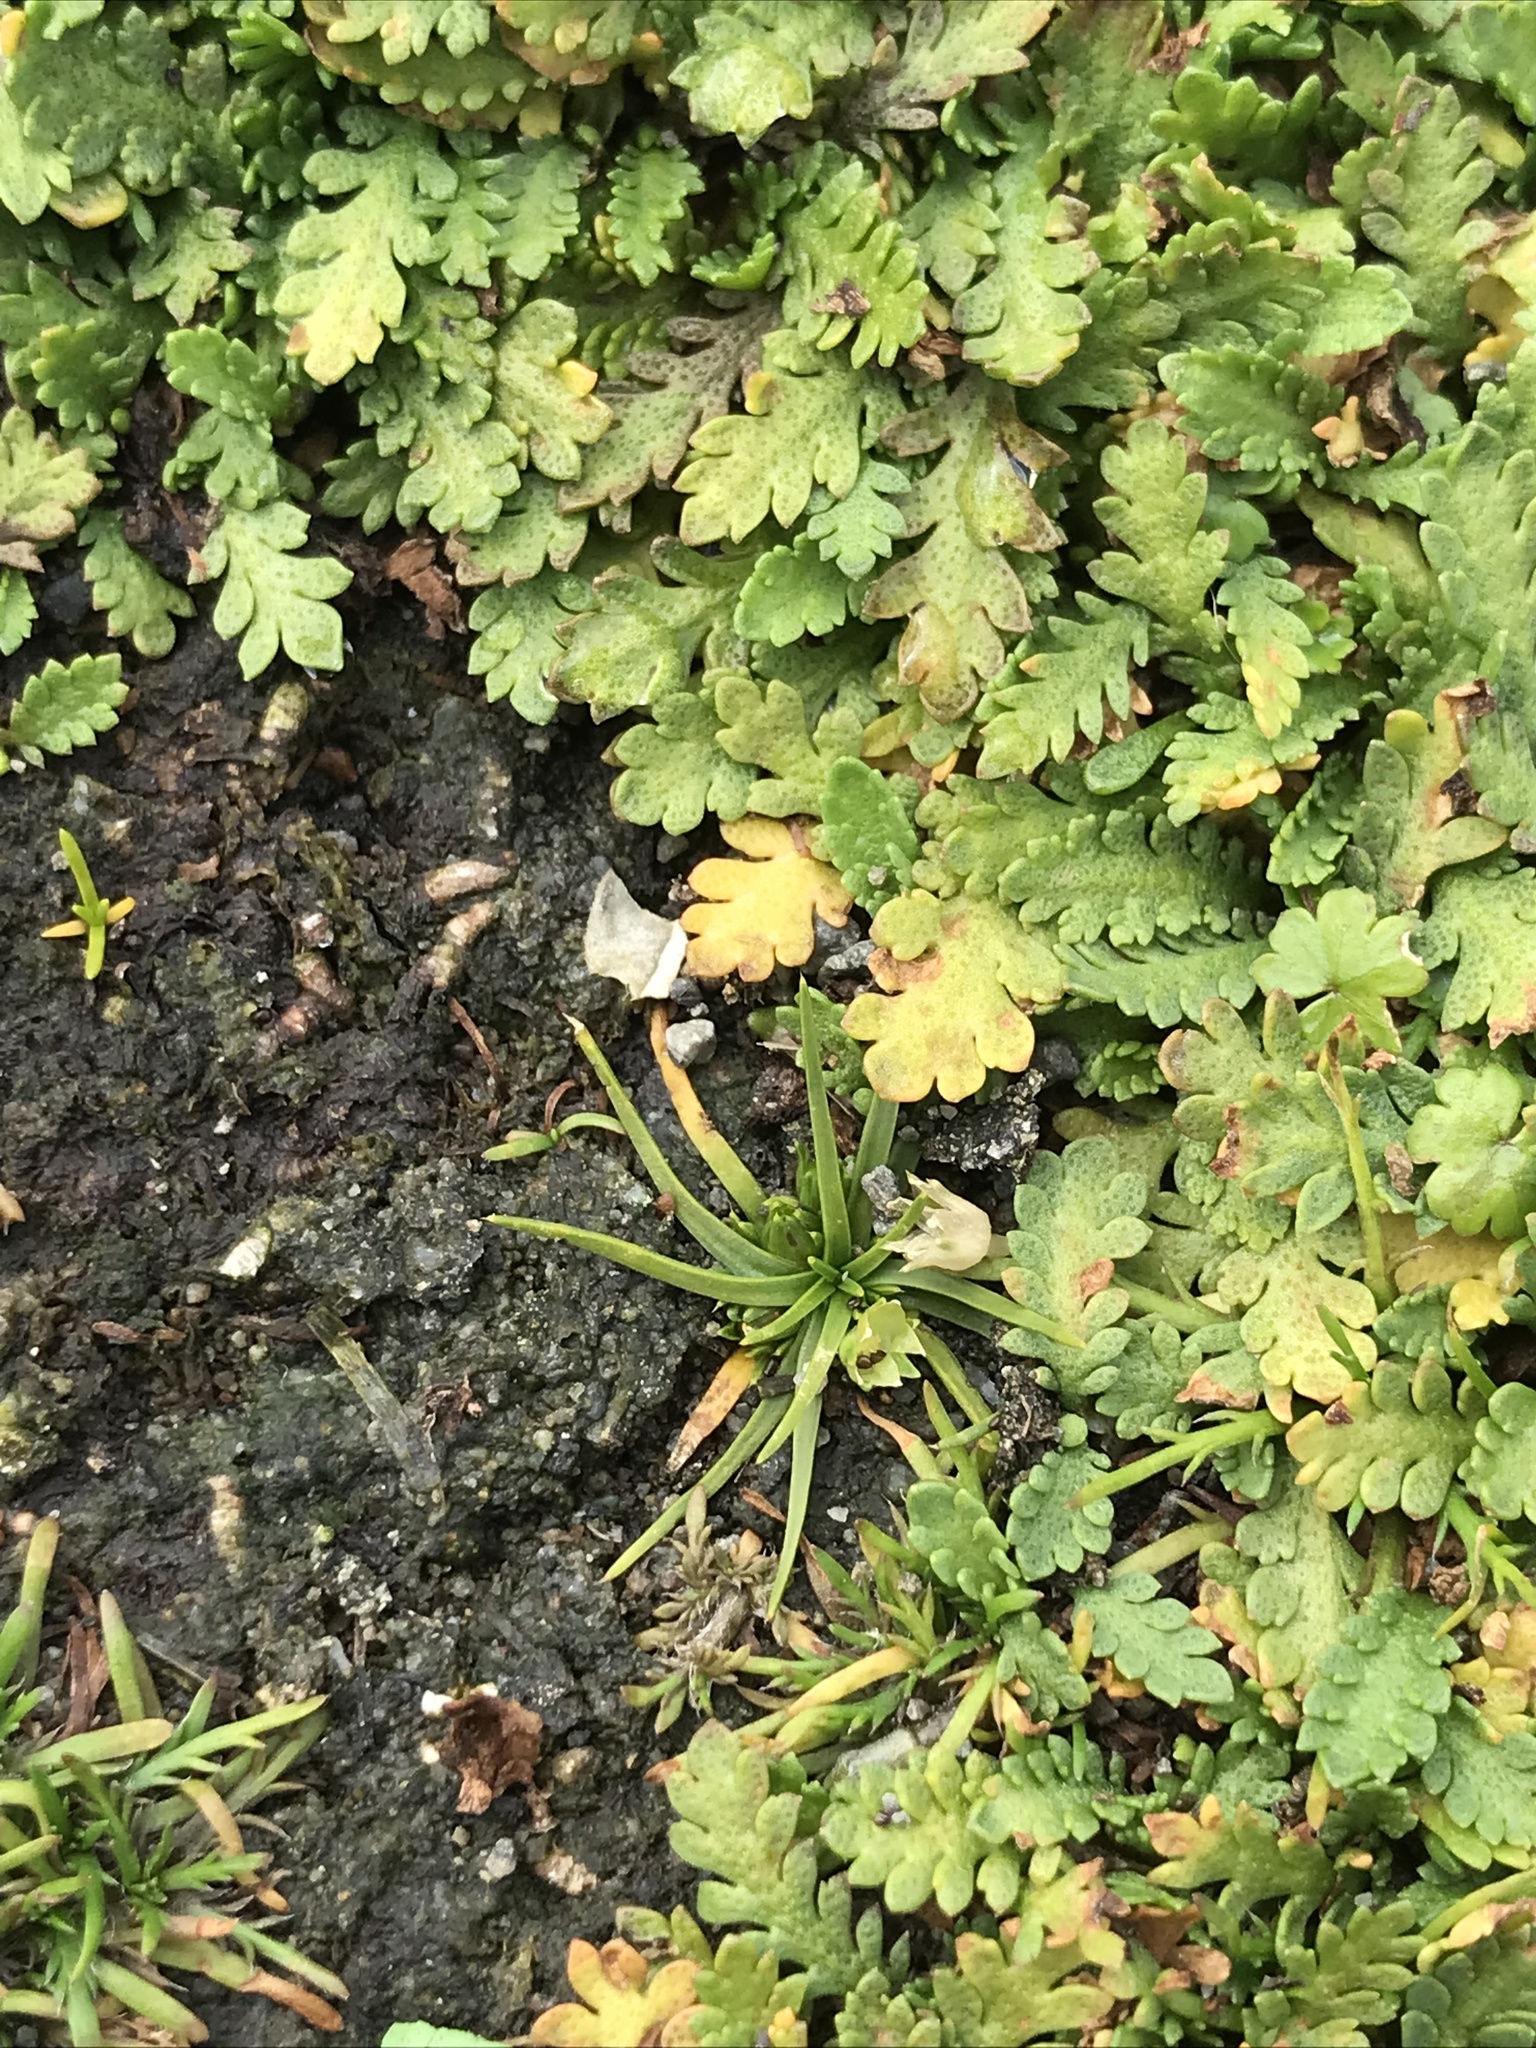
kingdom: Plantae
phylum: Tracheophyta
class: Magnoliopsida
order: Caryophyllales
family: Caryophyllaceae
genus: Colobanthus
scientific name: Colobanthus muelleri
